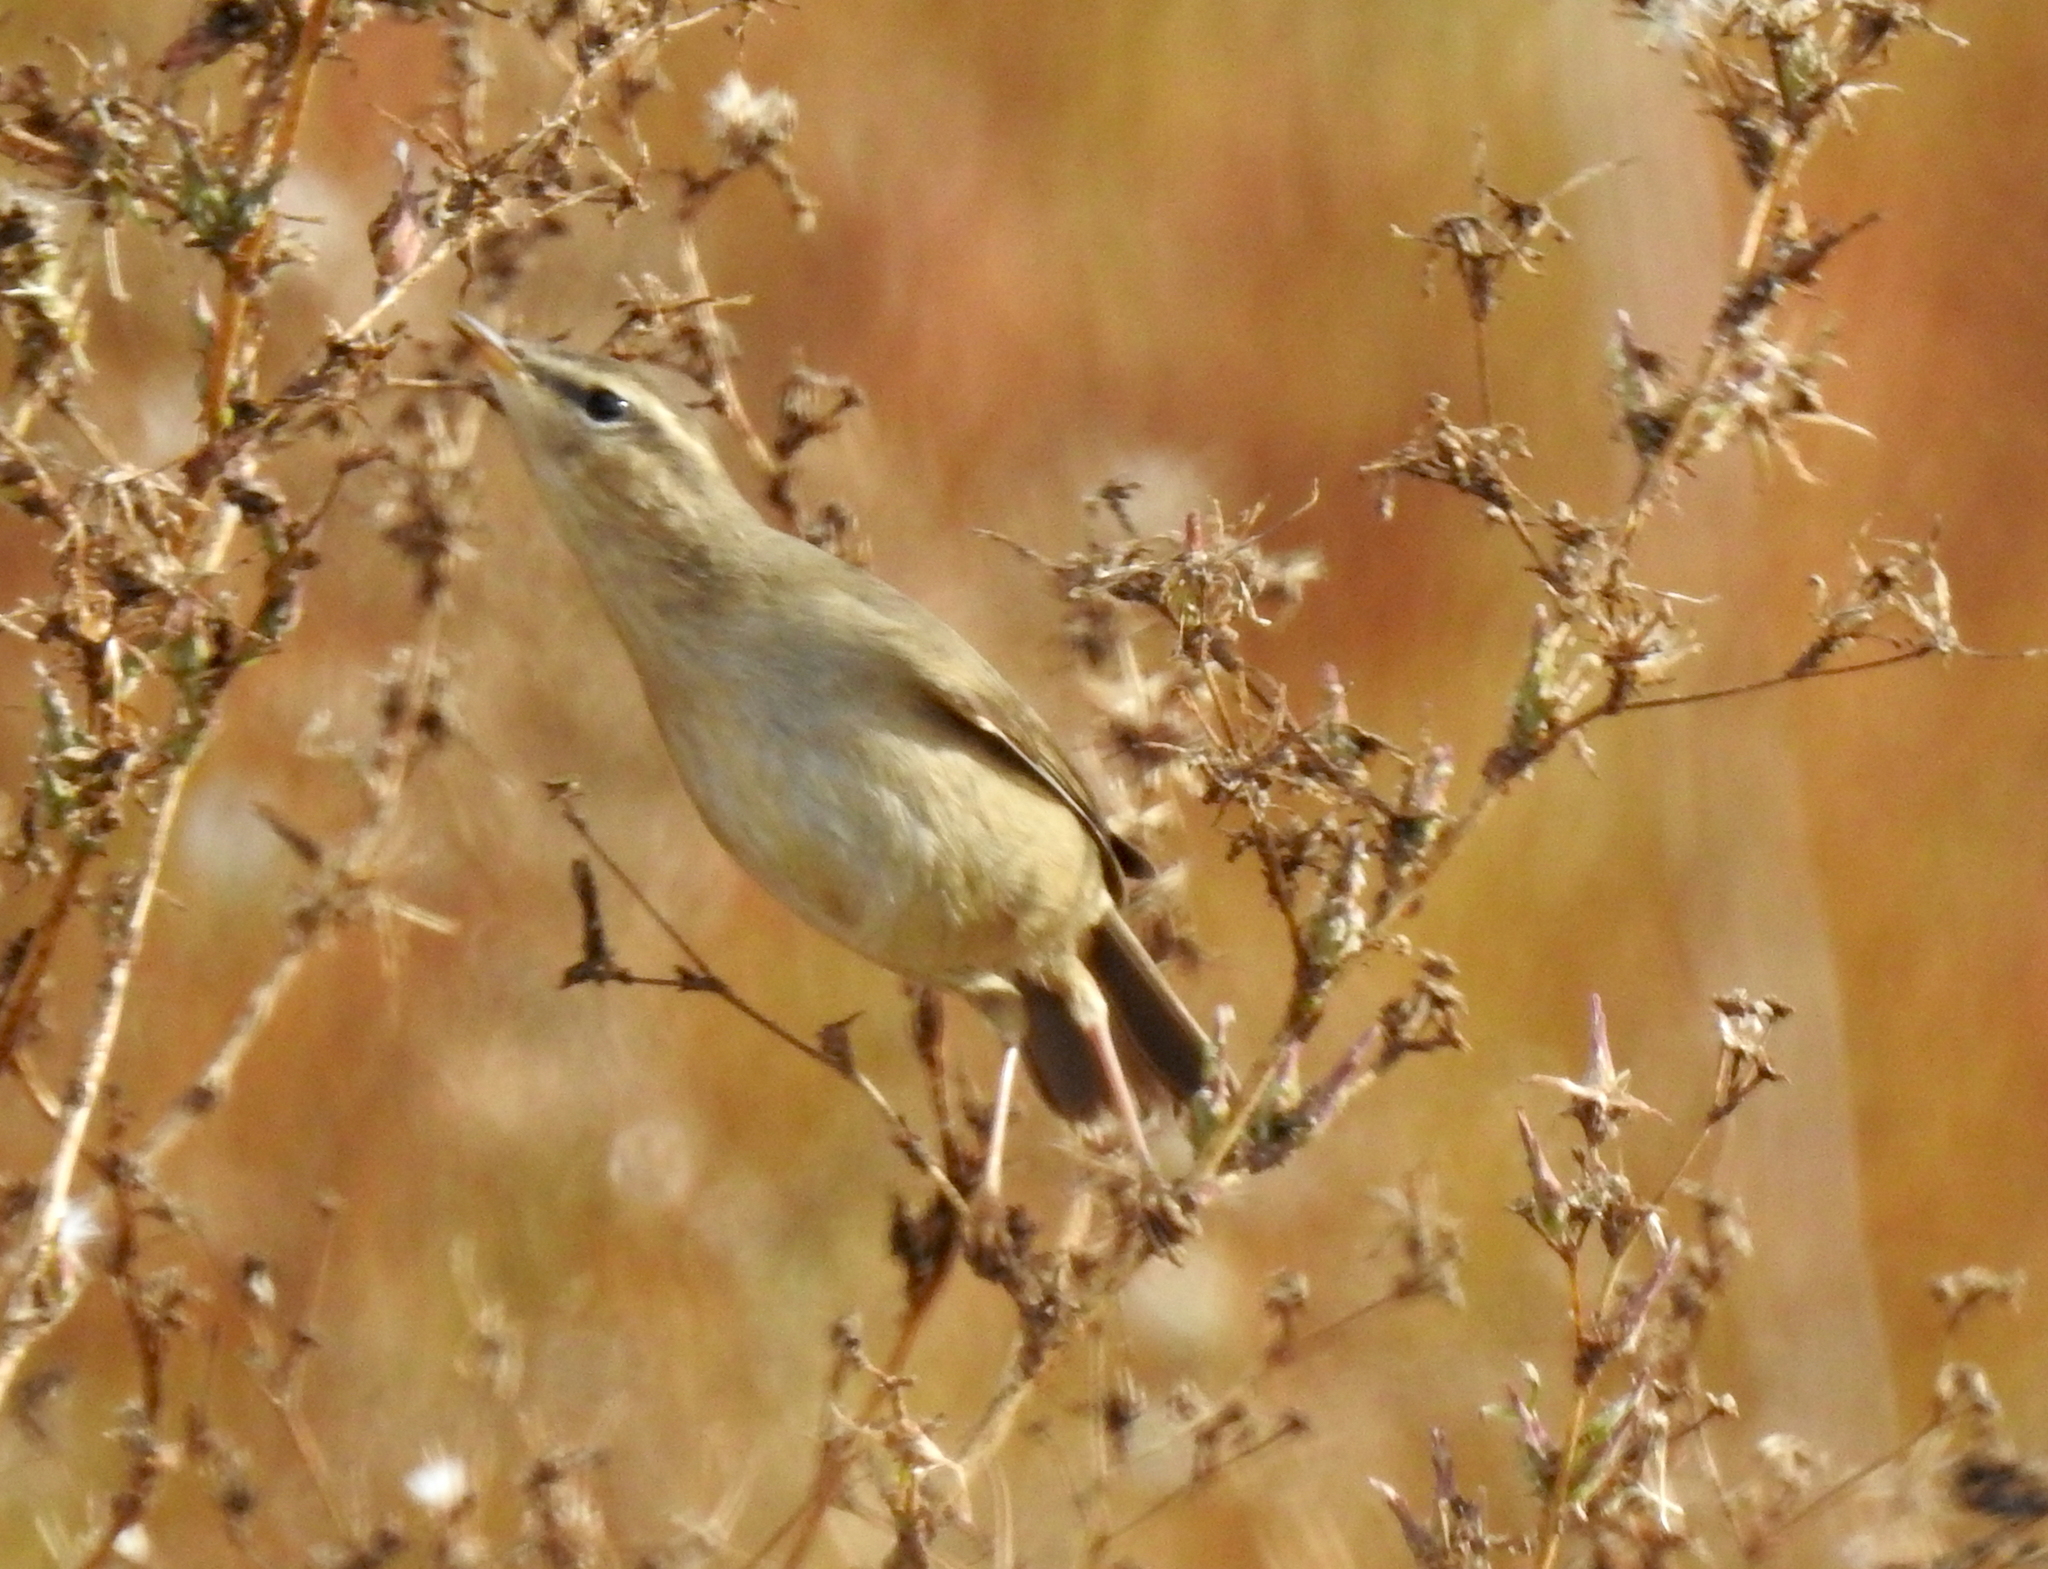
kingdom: Animalia
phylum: Chordata
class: Aves
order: Passeriformes
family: Phylloscopidae
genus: Phylloscopus
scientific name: Phylloscopus fuscatus
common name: Dusky warbler
